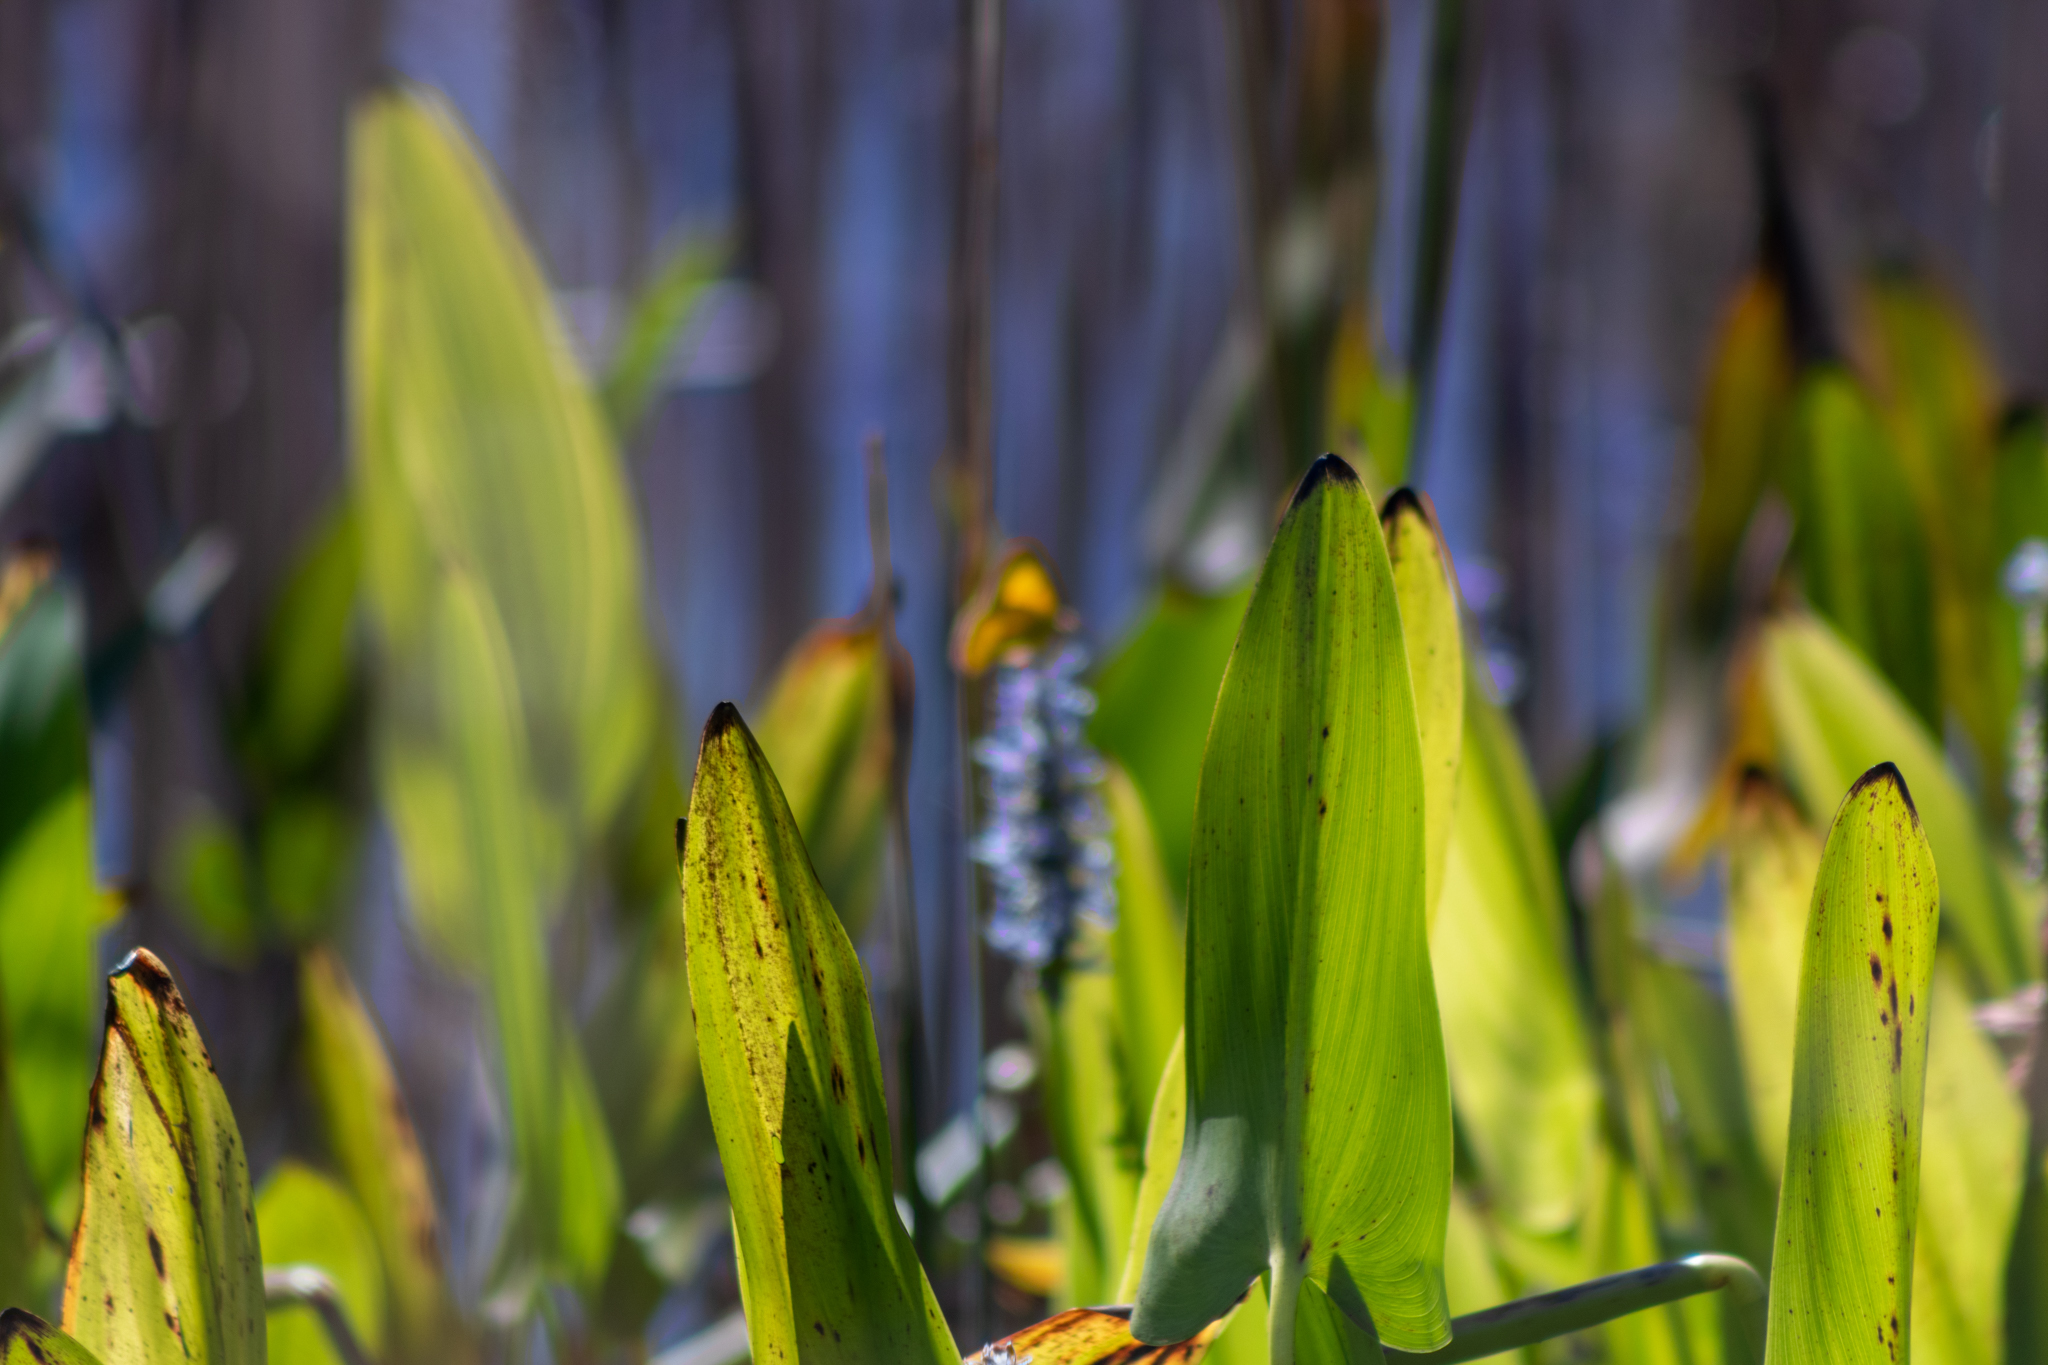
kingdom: Plantae
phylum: Tracheophyta
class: Liliopsida
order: Commelinales
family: Pontederiaceae
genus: Pontederia
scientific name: Pontederia cordata
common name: Pickerelweed
